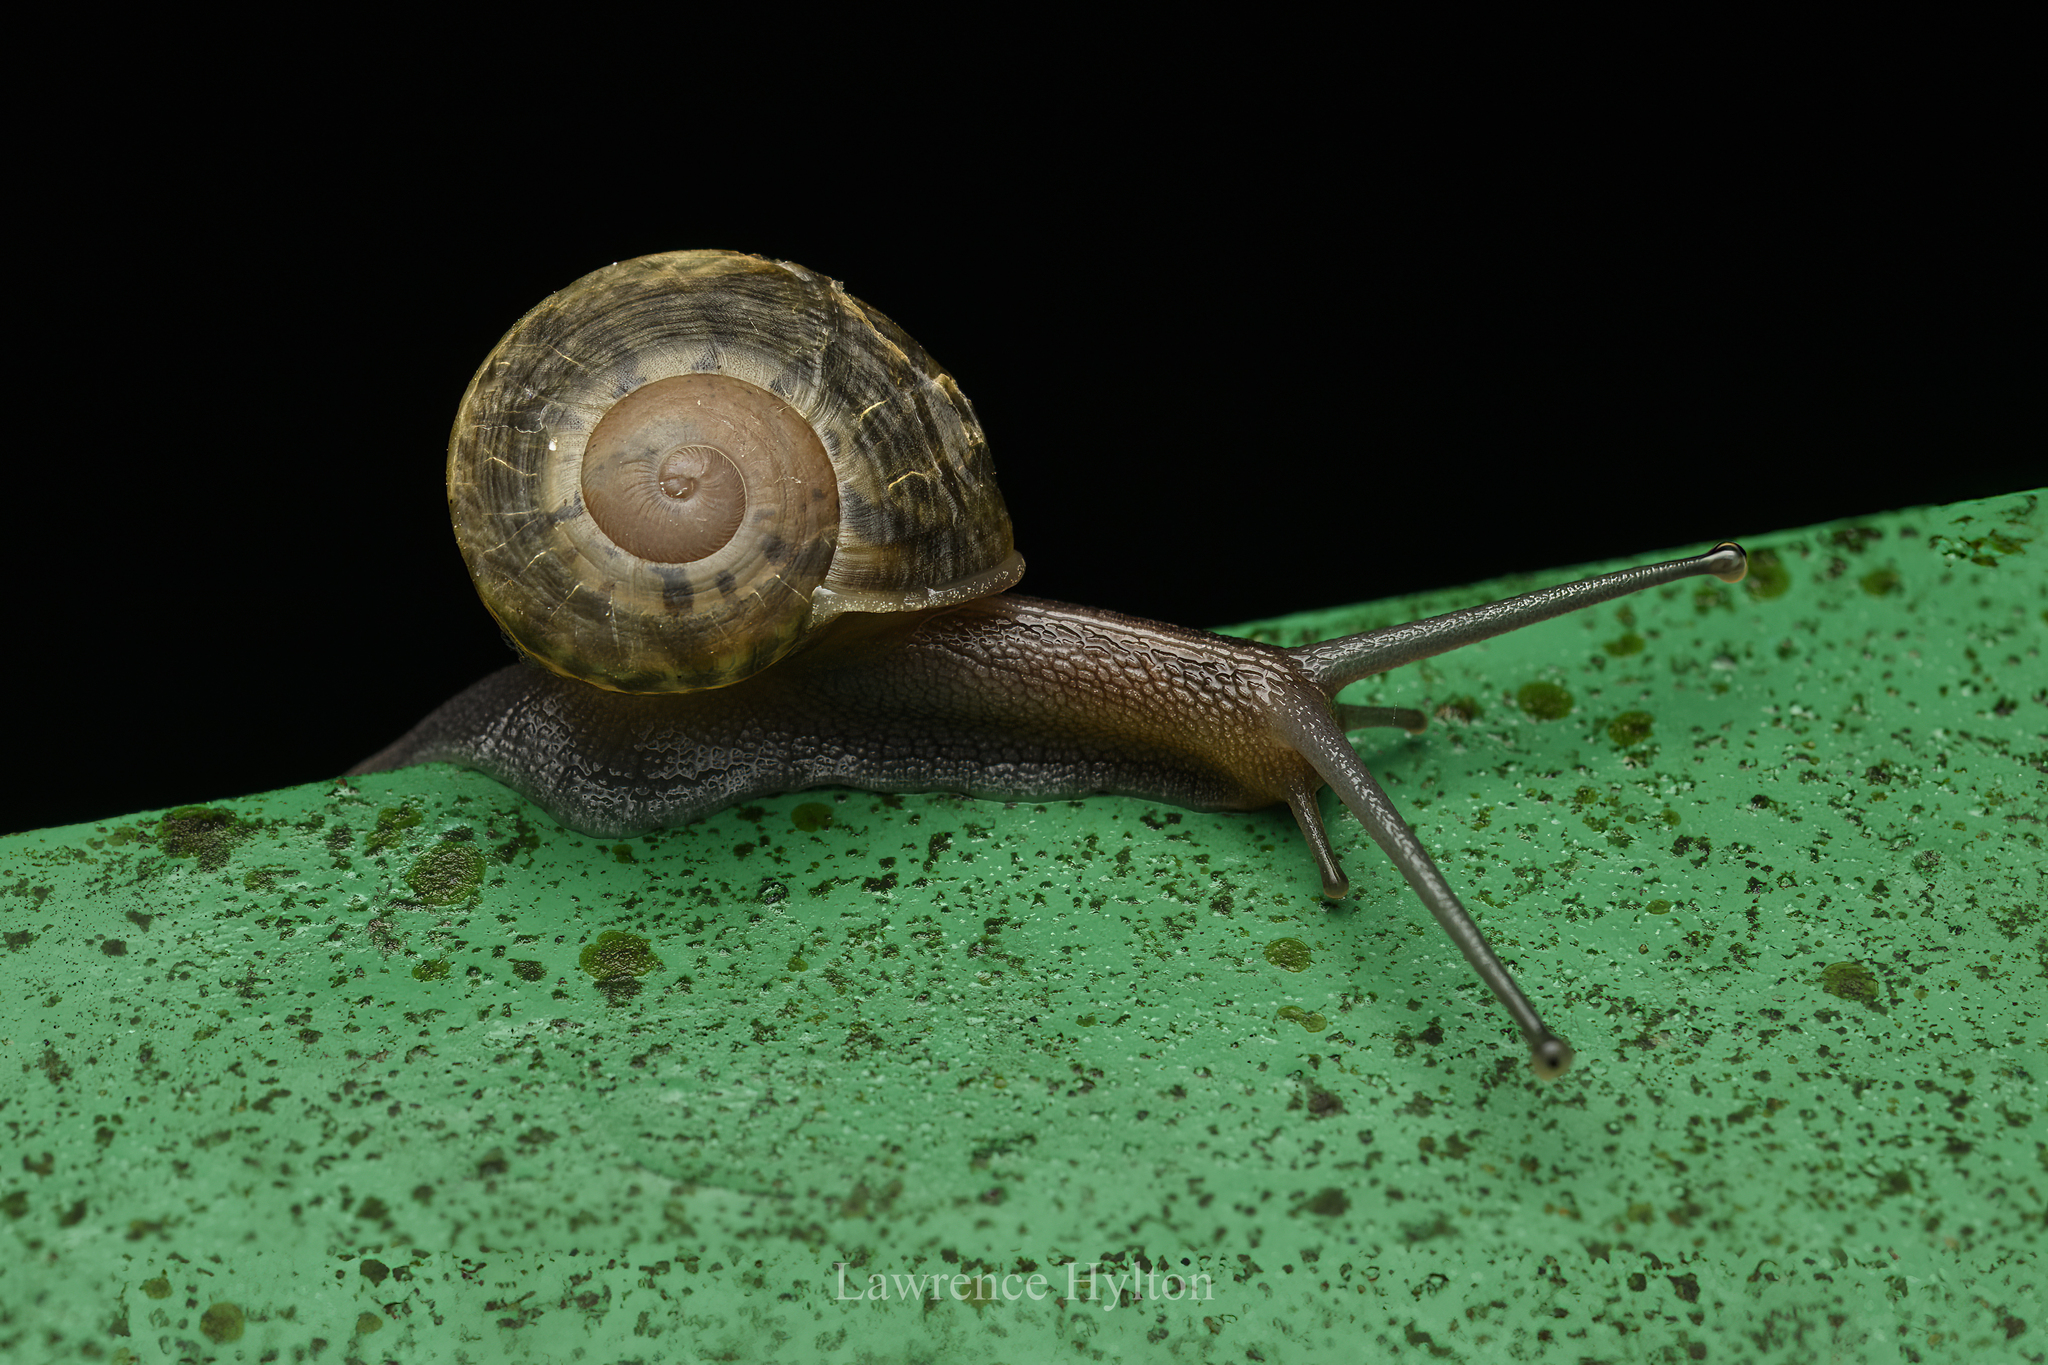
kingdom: Animalia
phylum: Mollusca
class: Gastropoda
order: Stylommatophora
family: Camaenidae
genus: Camaena
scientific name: Camaena hainanensis
